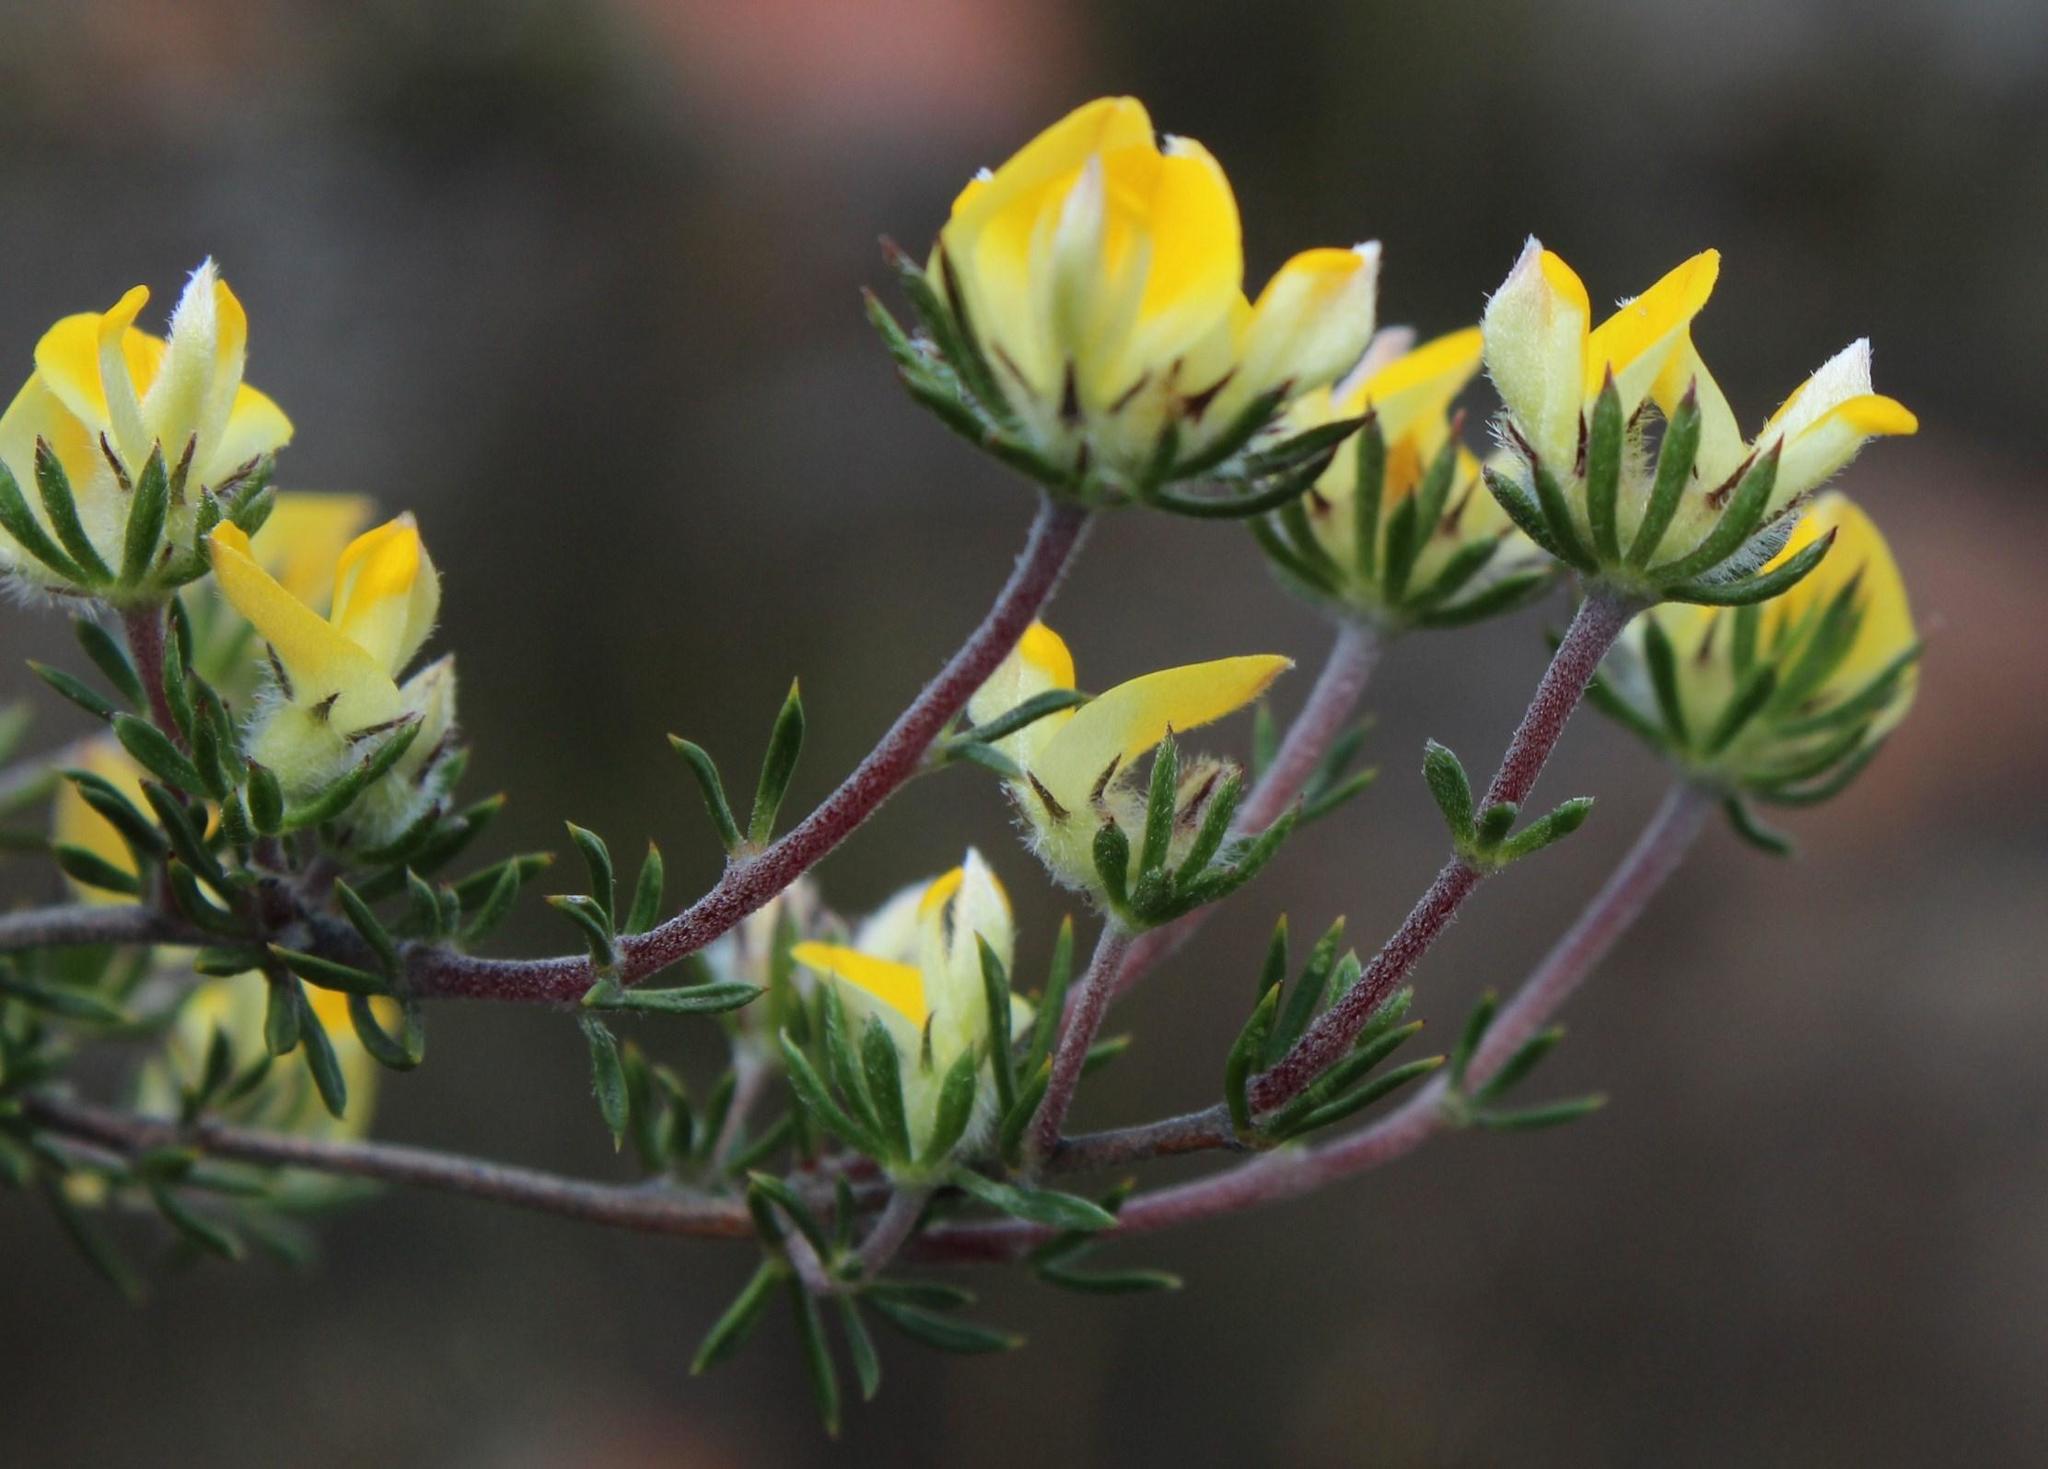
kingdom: Plantae
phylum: Tracheophyta
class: Magnoliopsida
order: Fabales
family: Fabaceae
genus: Aspalathus
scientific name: Aspalathus stenophylla
